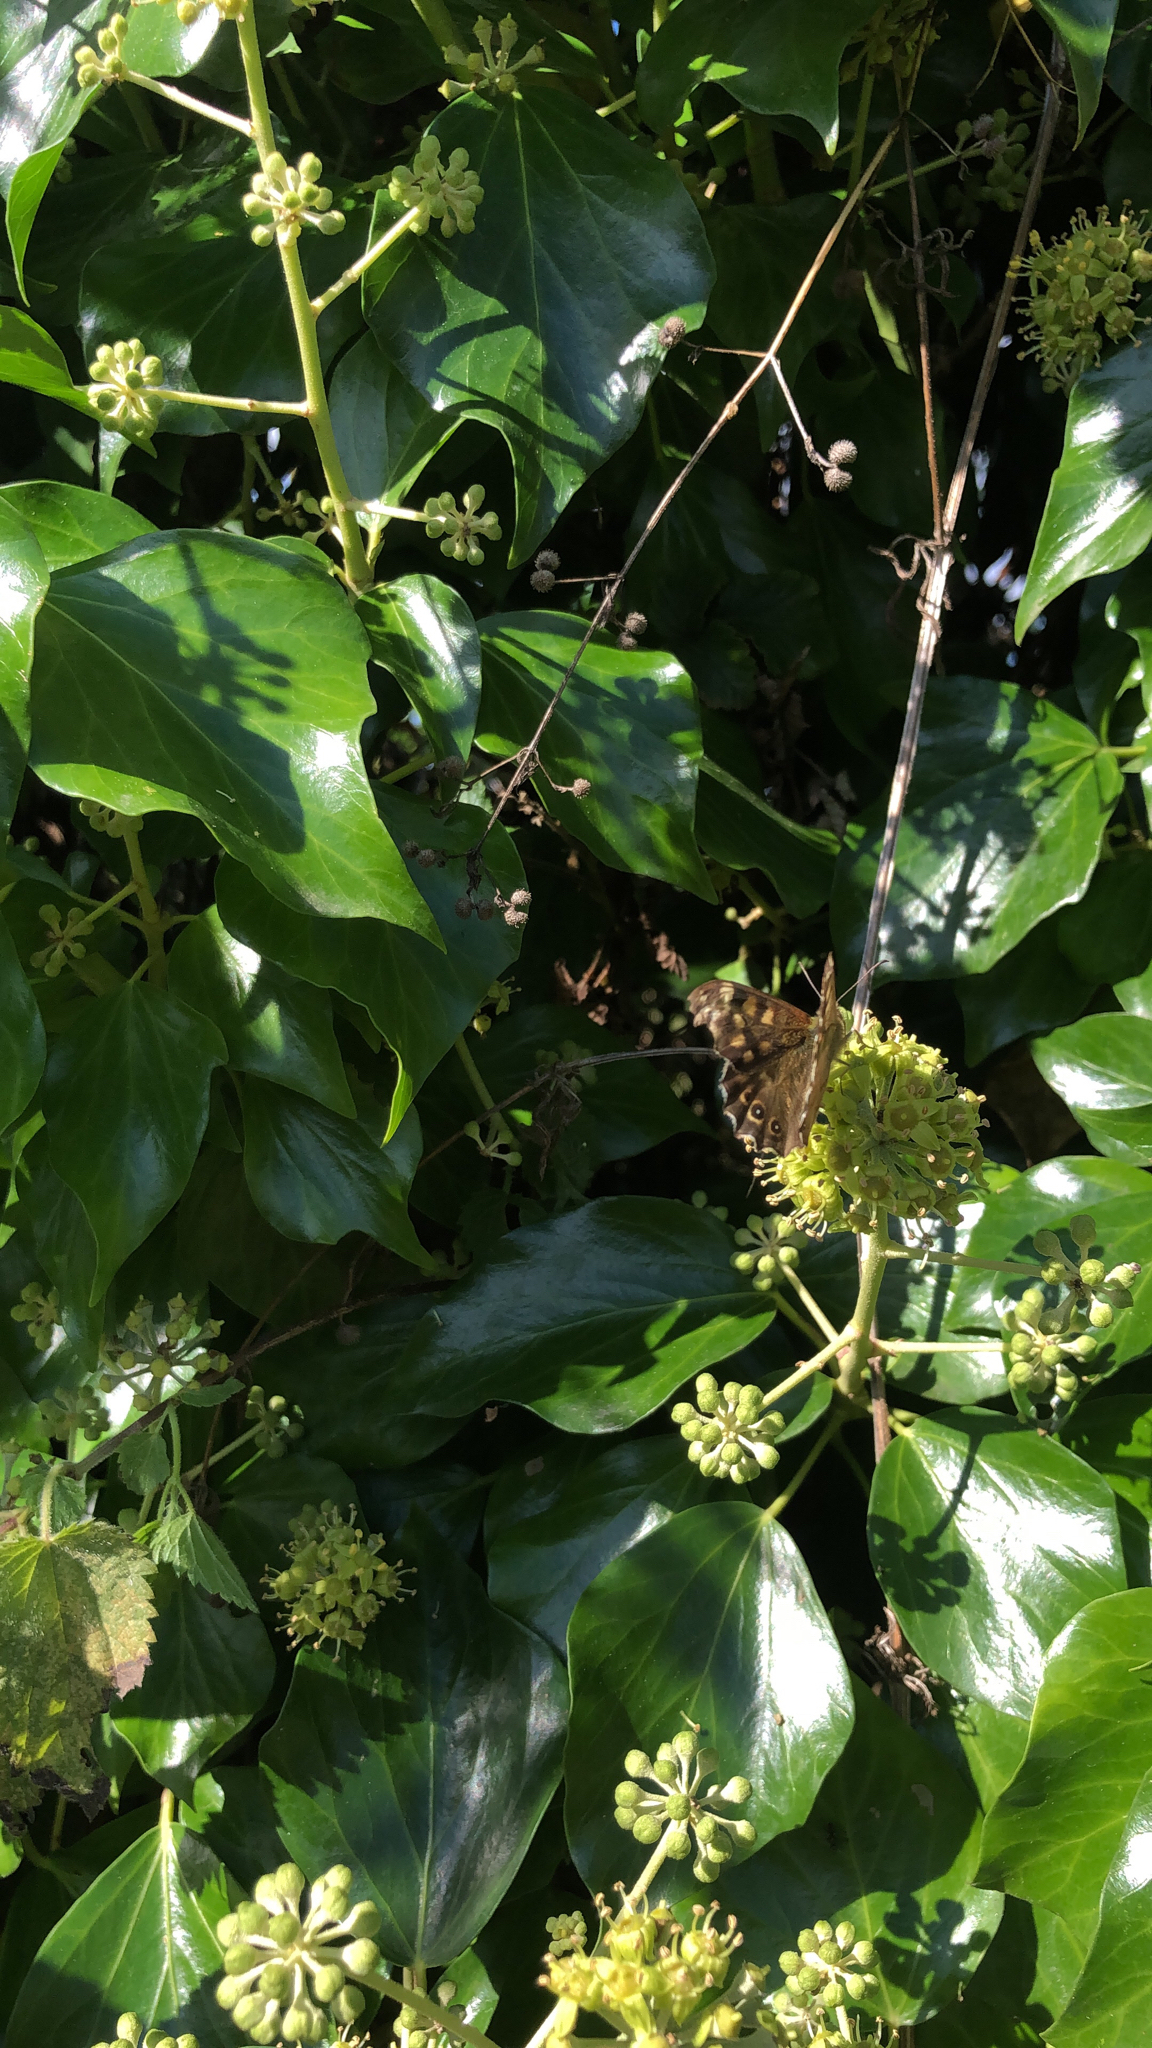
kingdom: Animalia
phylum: Arthropoda
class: Insecta
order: Lepidoptera
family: Nymphalidae
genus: Pararge
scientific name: Pararge aegeria
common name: Speckled wood
